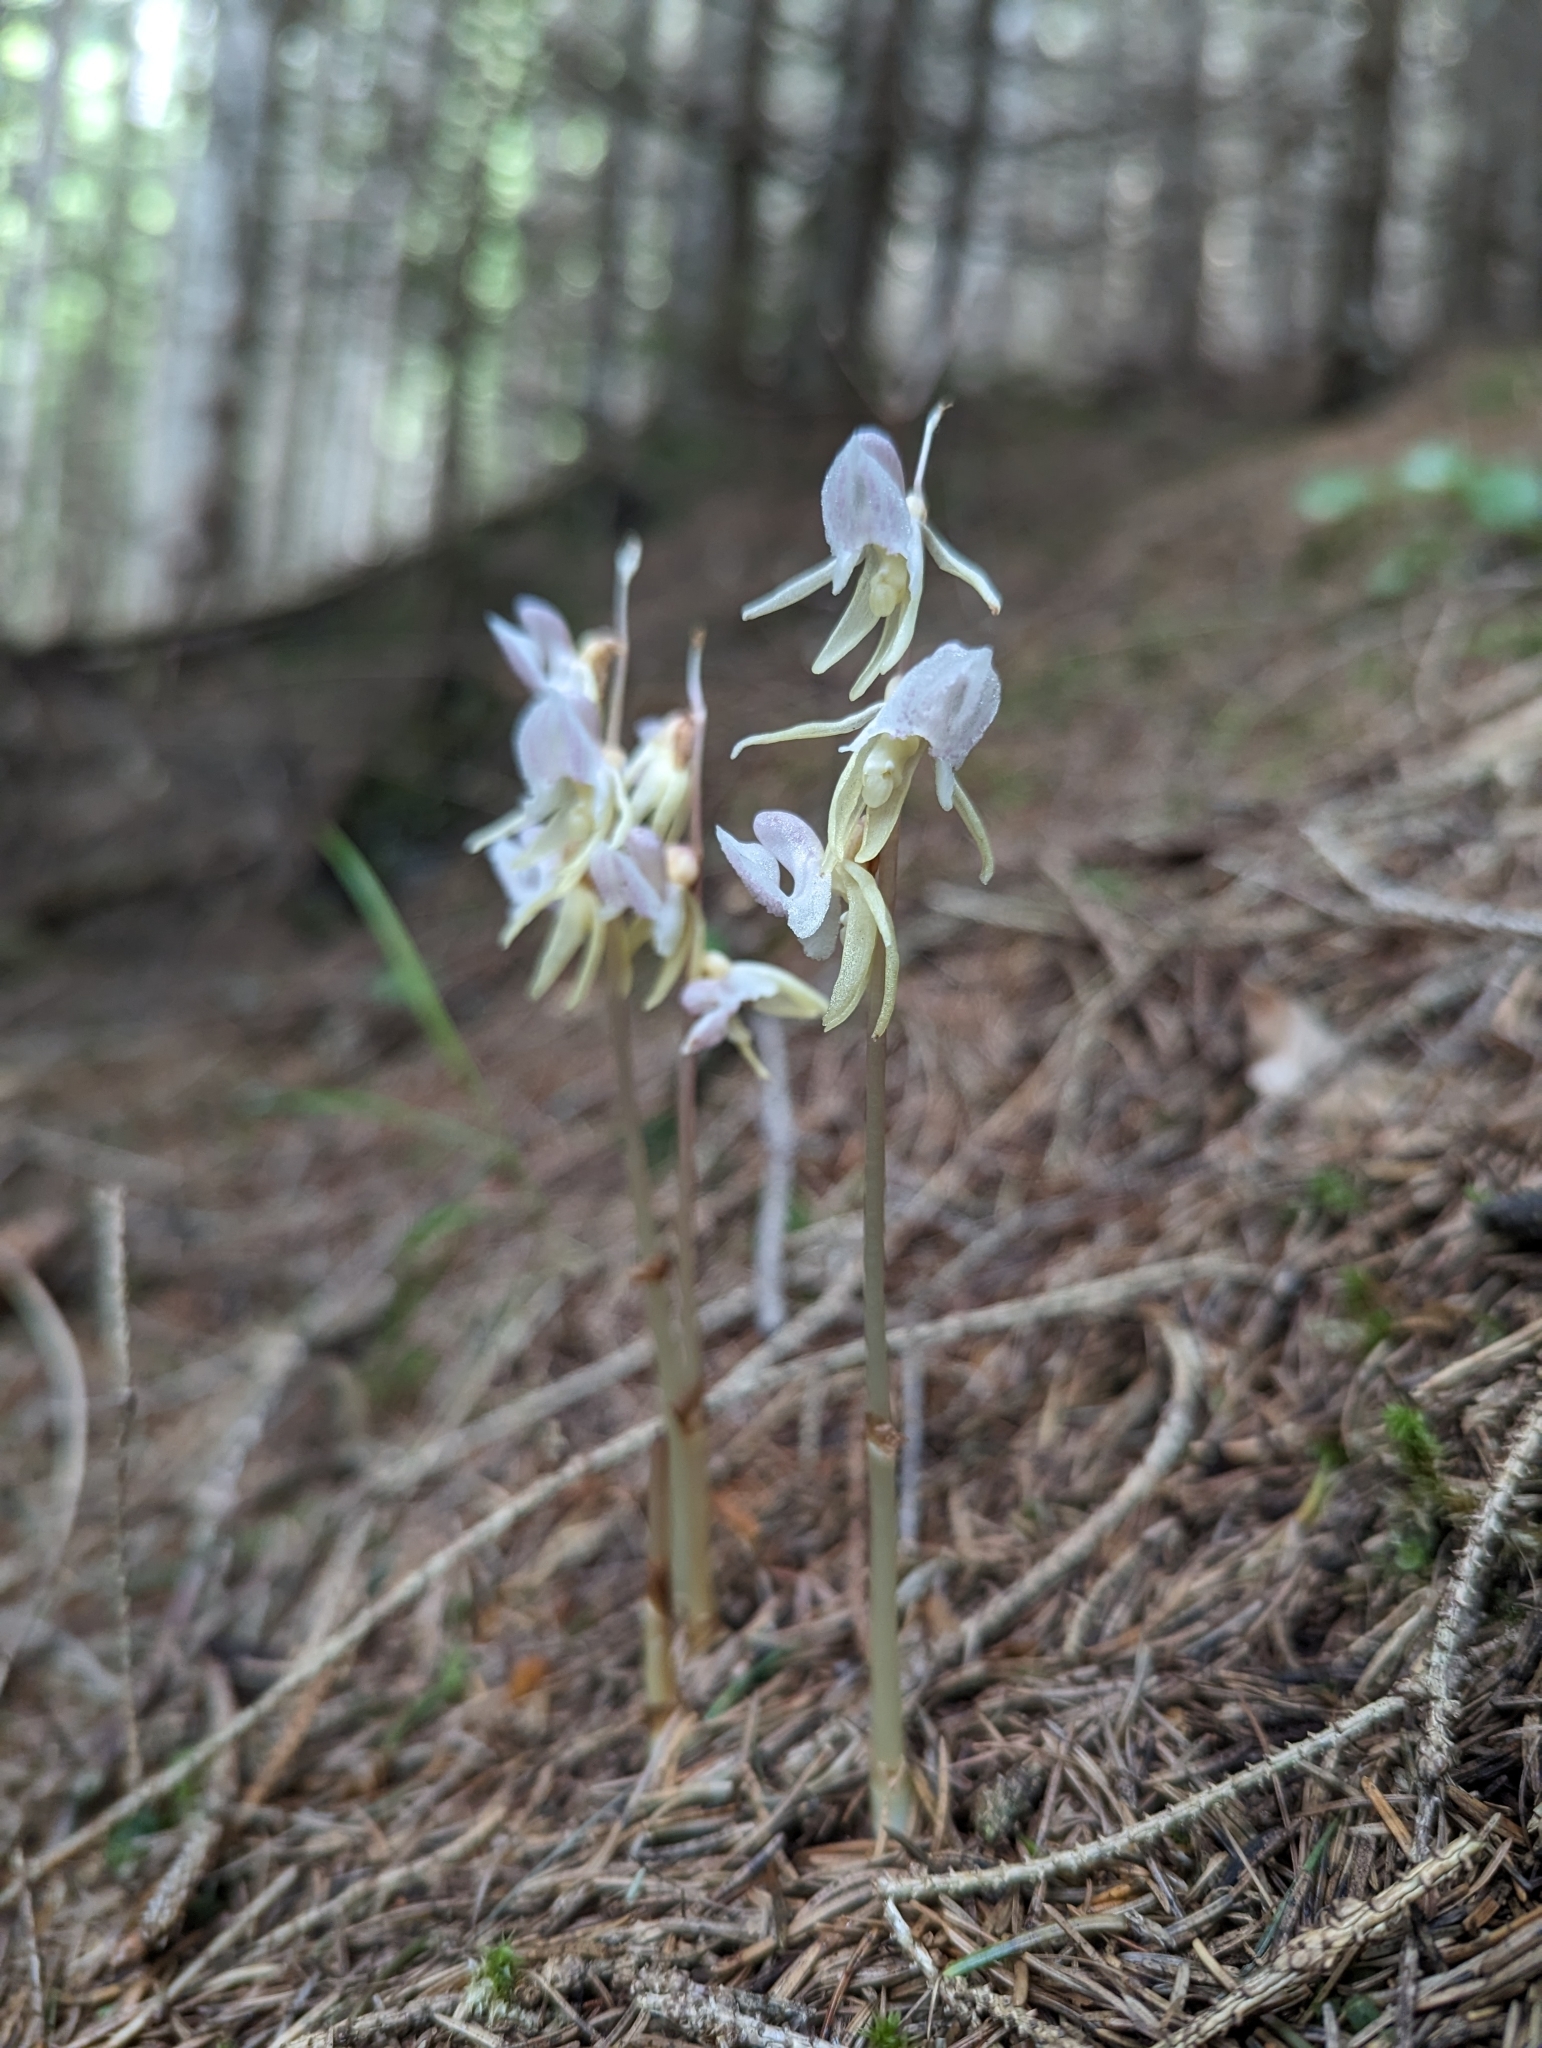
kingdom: Plantae
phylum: Tracheophyta
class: Liliopsida
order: Asparagales
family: Orchidaceae
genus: Epipogium
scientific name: Epipogium aphyllum
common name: Ghost orchid
